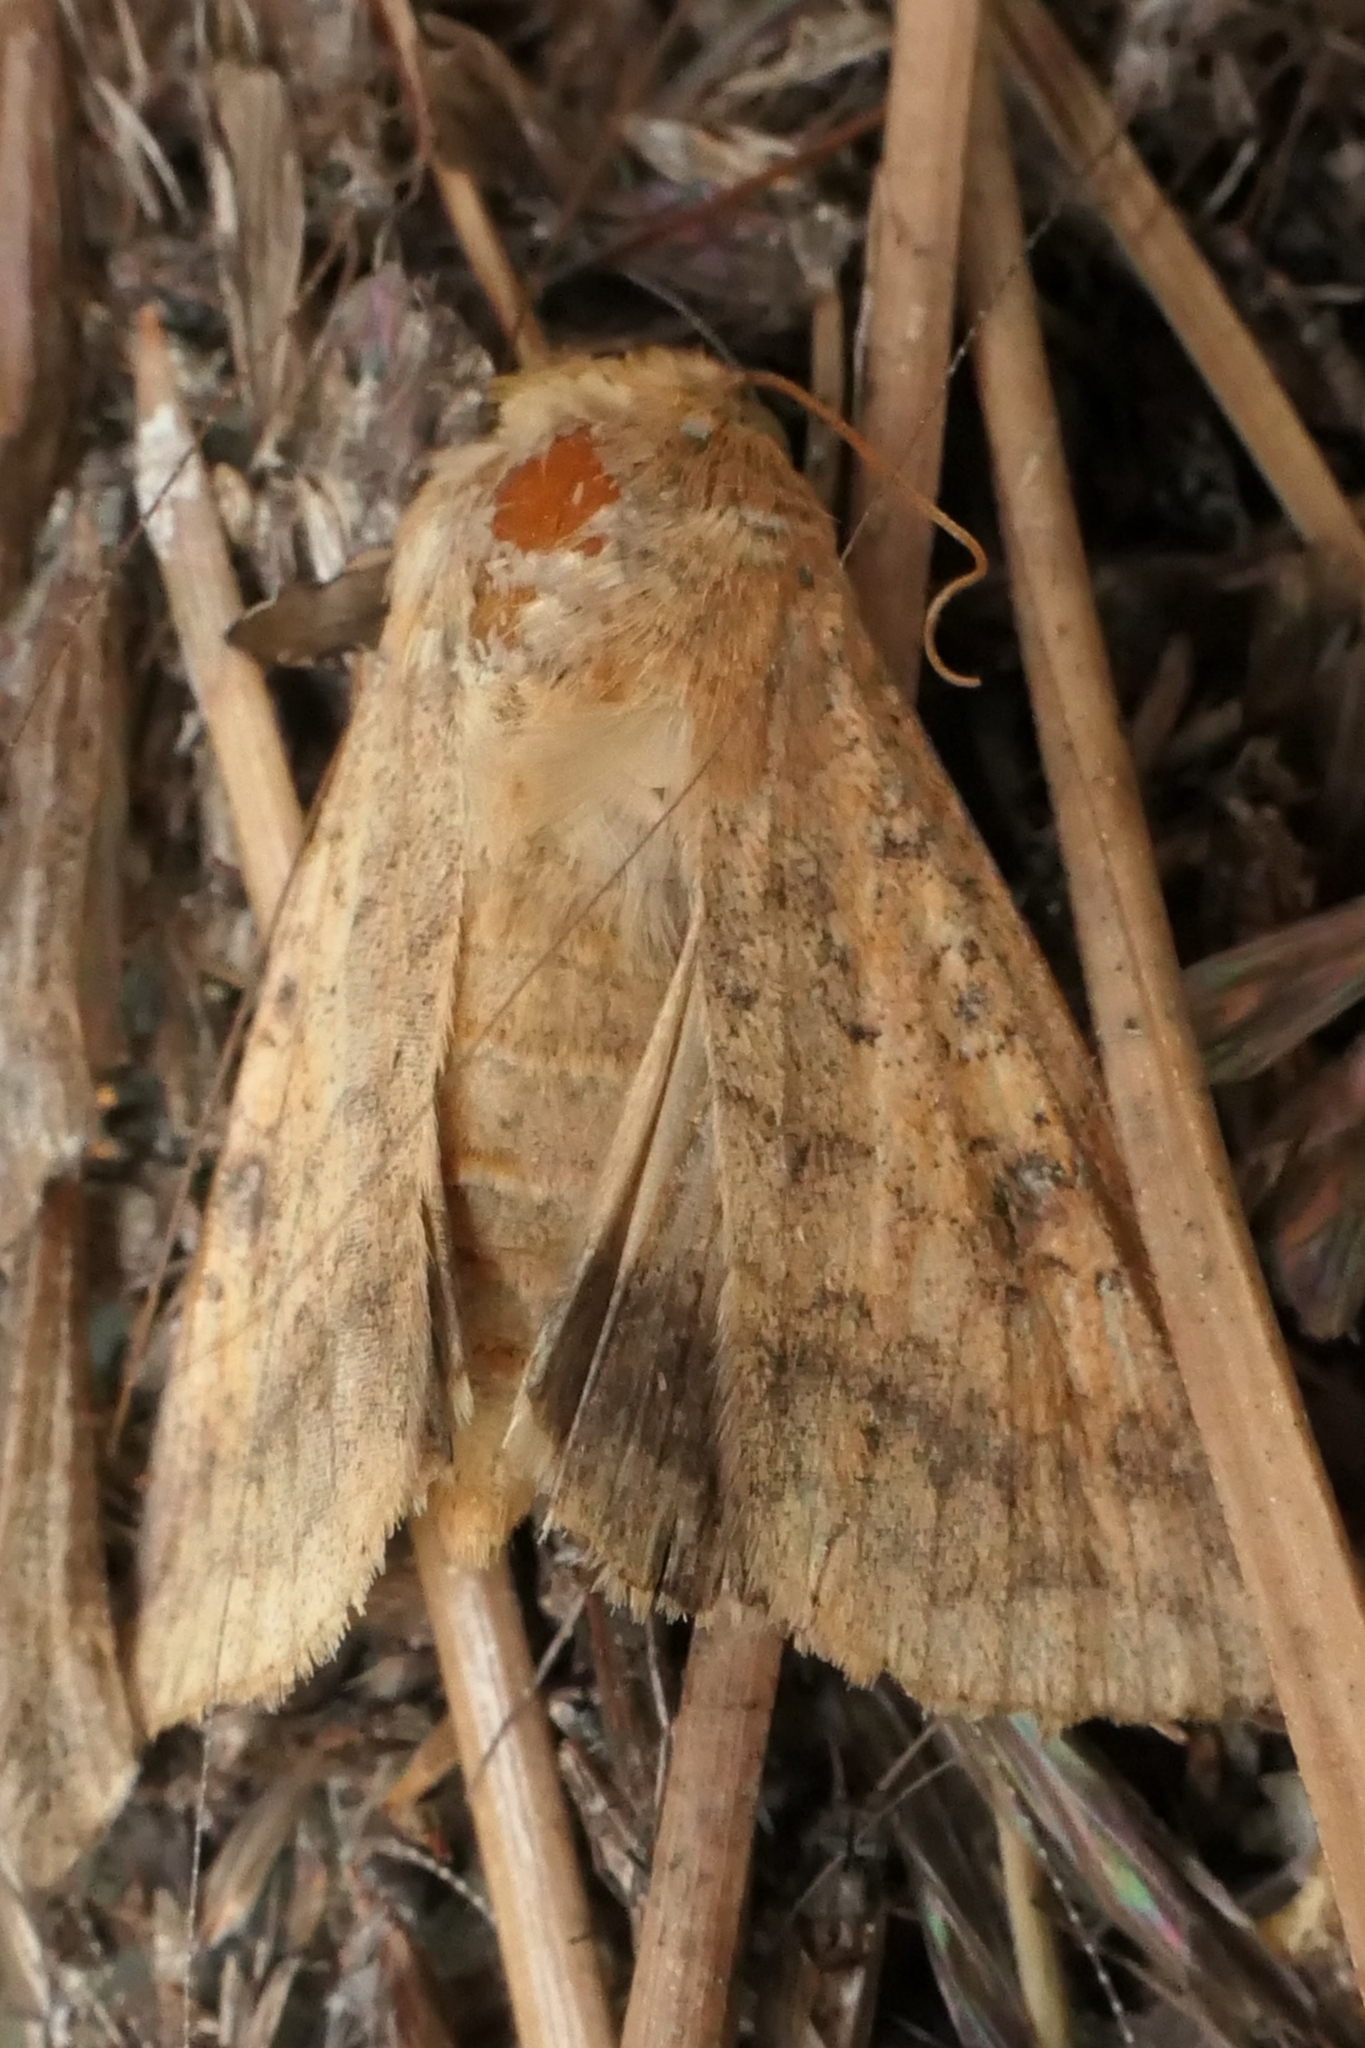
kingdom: Animalia
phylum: Arthropoda
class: Insecta
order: Lepidoptera
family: Noctuidae
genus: Helicoverpa
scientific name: Helicoverpa armigera
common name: Cotton bollworm
